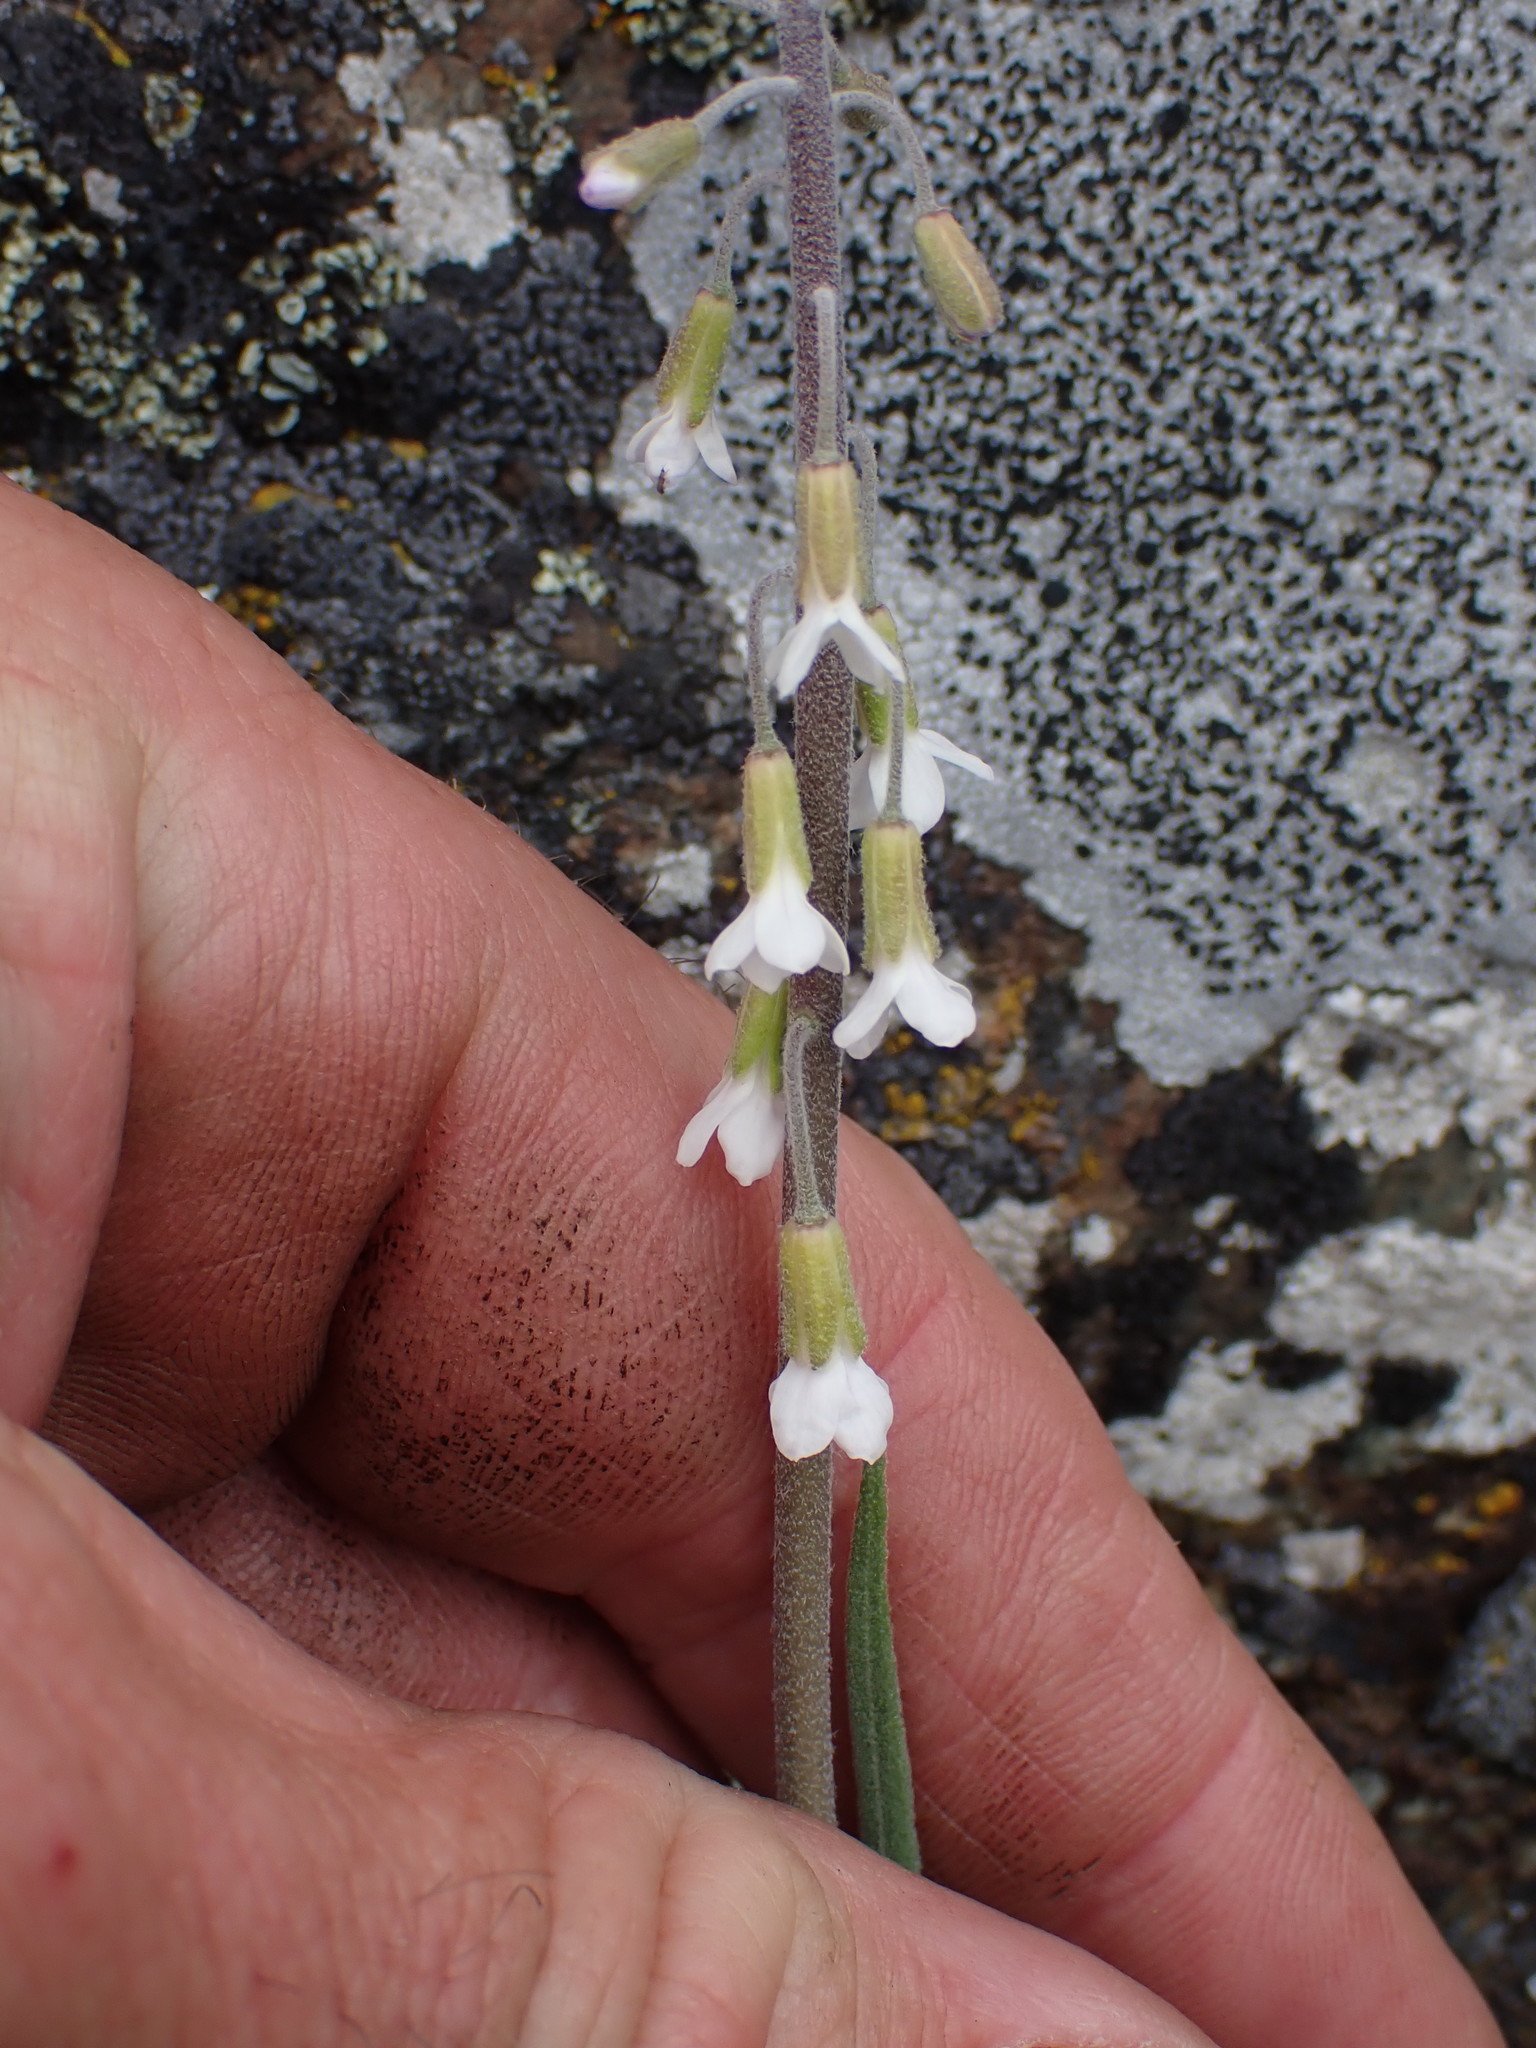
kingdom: Plantae
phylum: Tracheophyta
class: Magnoliopsida
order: Brassicales
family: Brassicaceae
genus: Boechera
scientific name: Boechera retrofracta
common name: Dangling suncress
